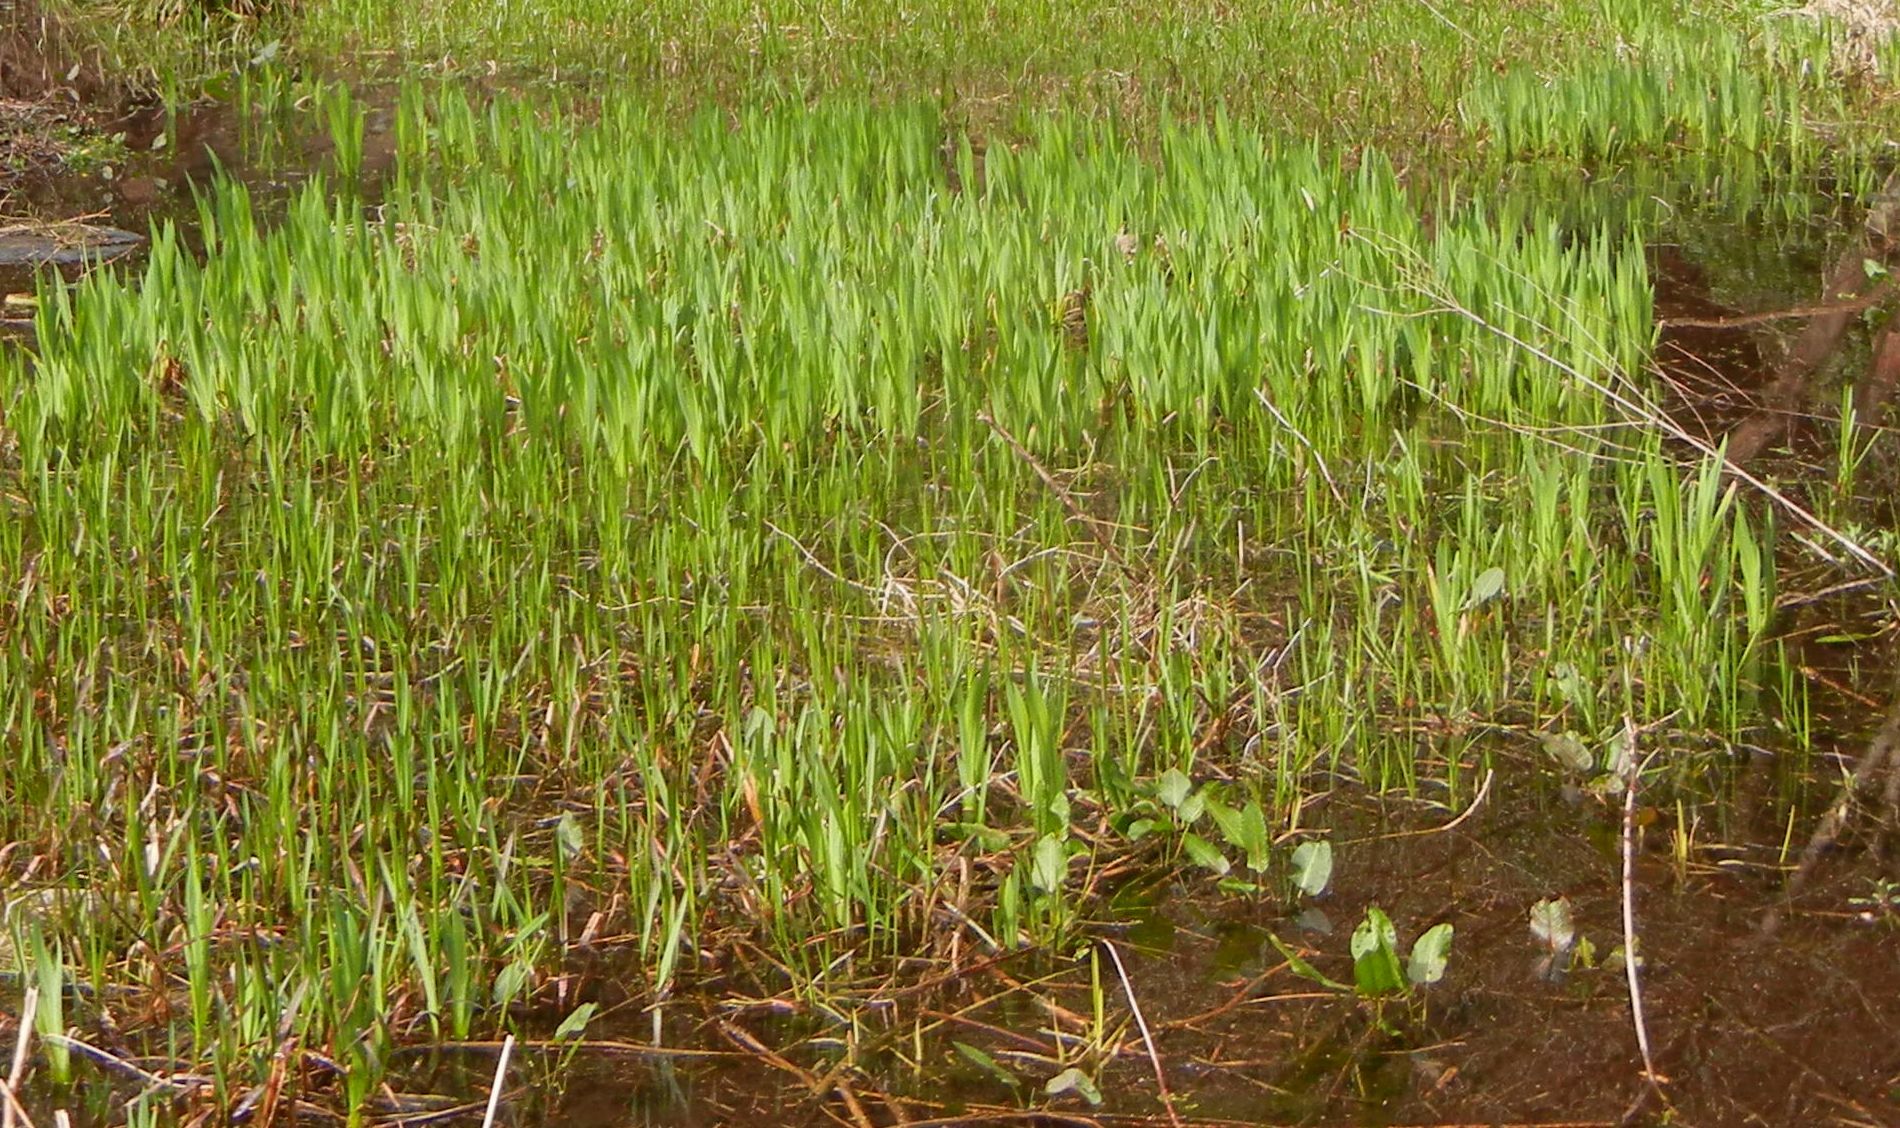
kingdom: Plantae
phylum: Tracheophyta
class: Liliopsida
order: Asparagales
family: Iridaceae
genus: Iris
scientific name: Iris pseudacorus
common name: Yellow flag
